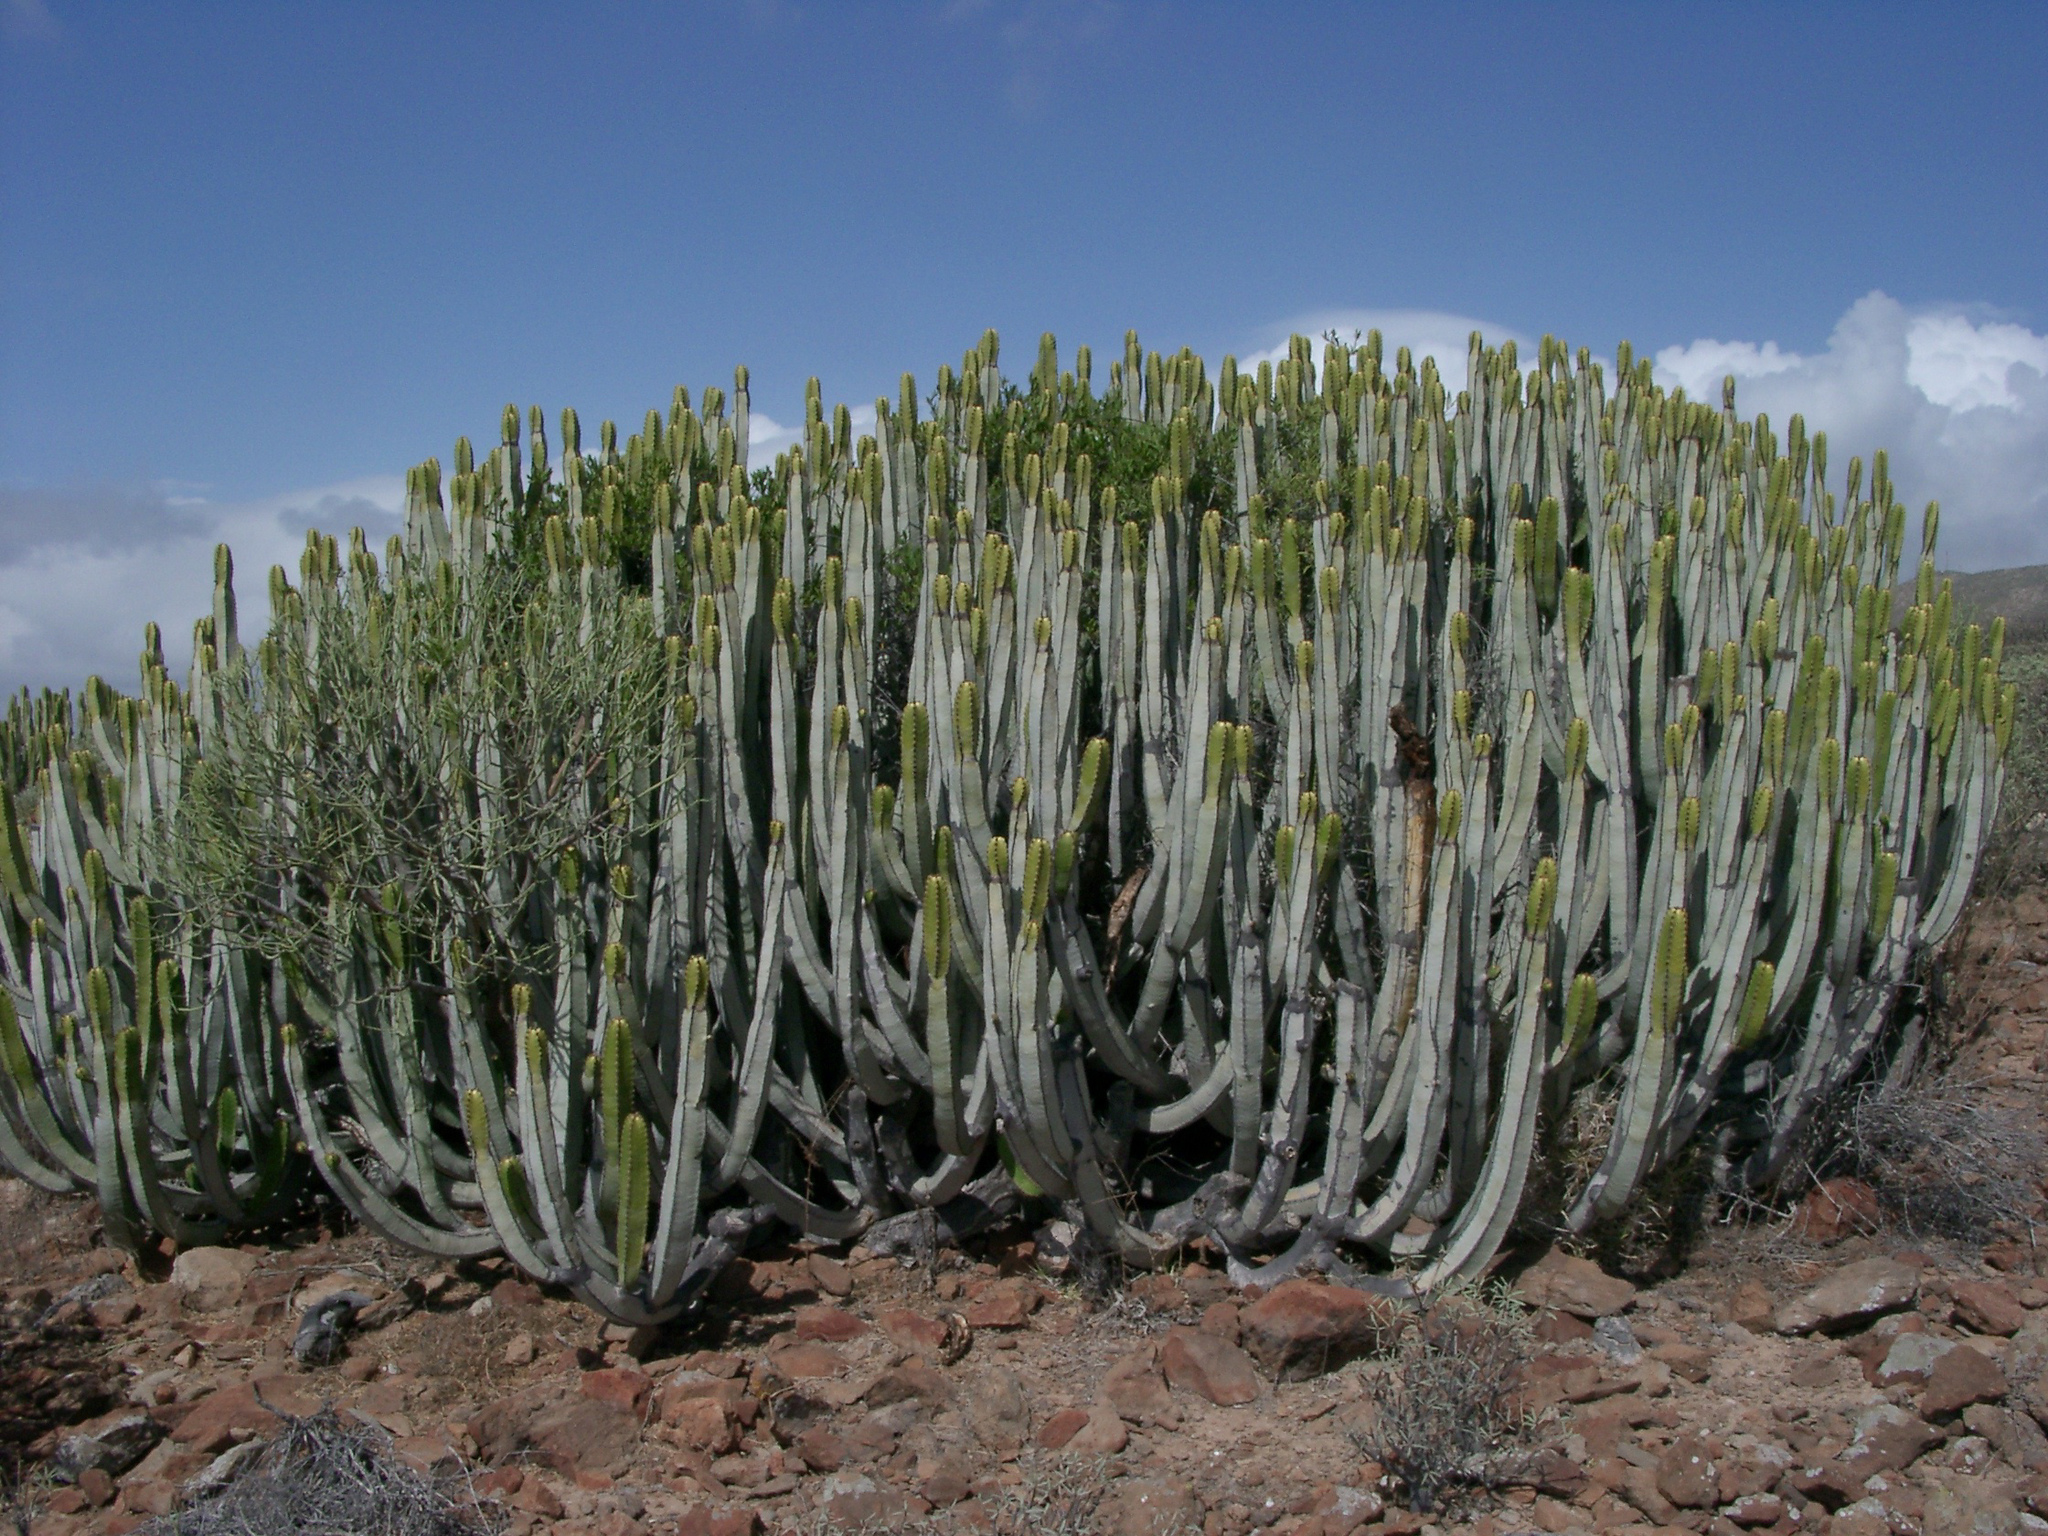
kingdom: Plantae
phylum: Tracheophyta
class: Magnoliopsida
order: Malpighiales
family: Euphorbiaceae
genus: Euphorbia
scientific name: Euphorbia canariensis
